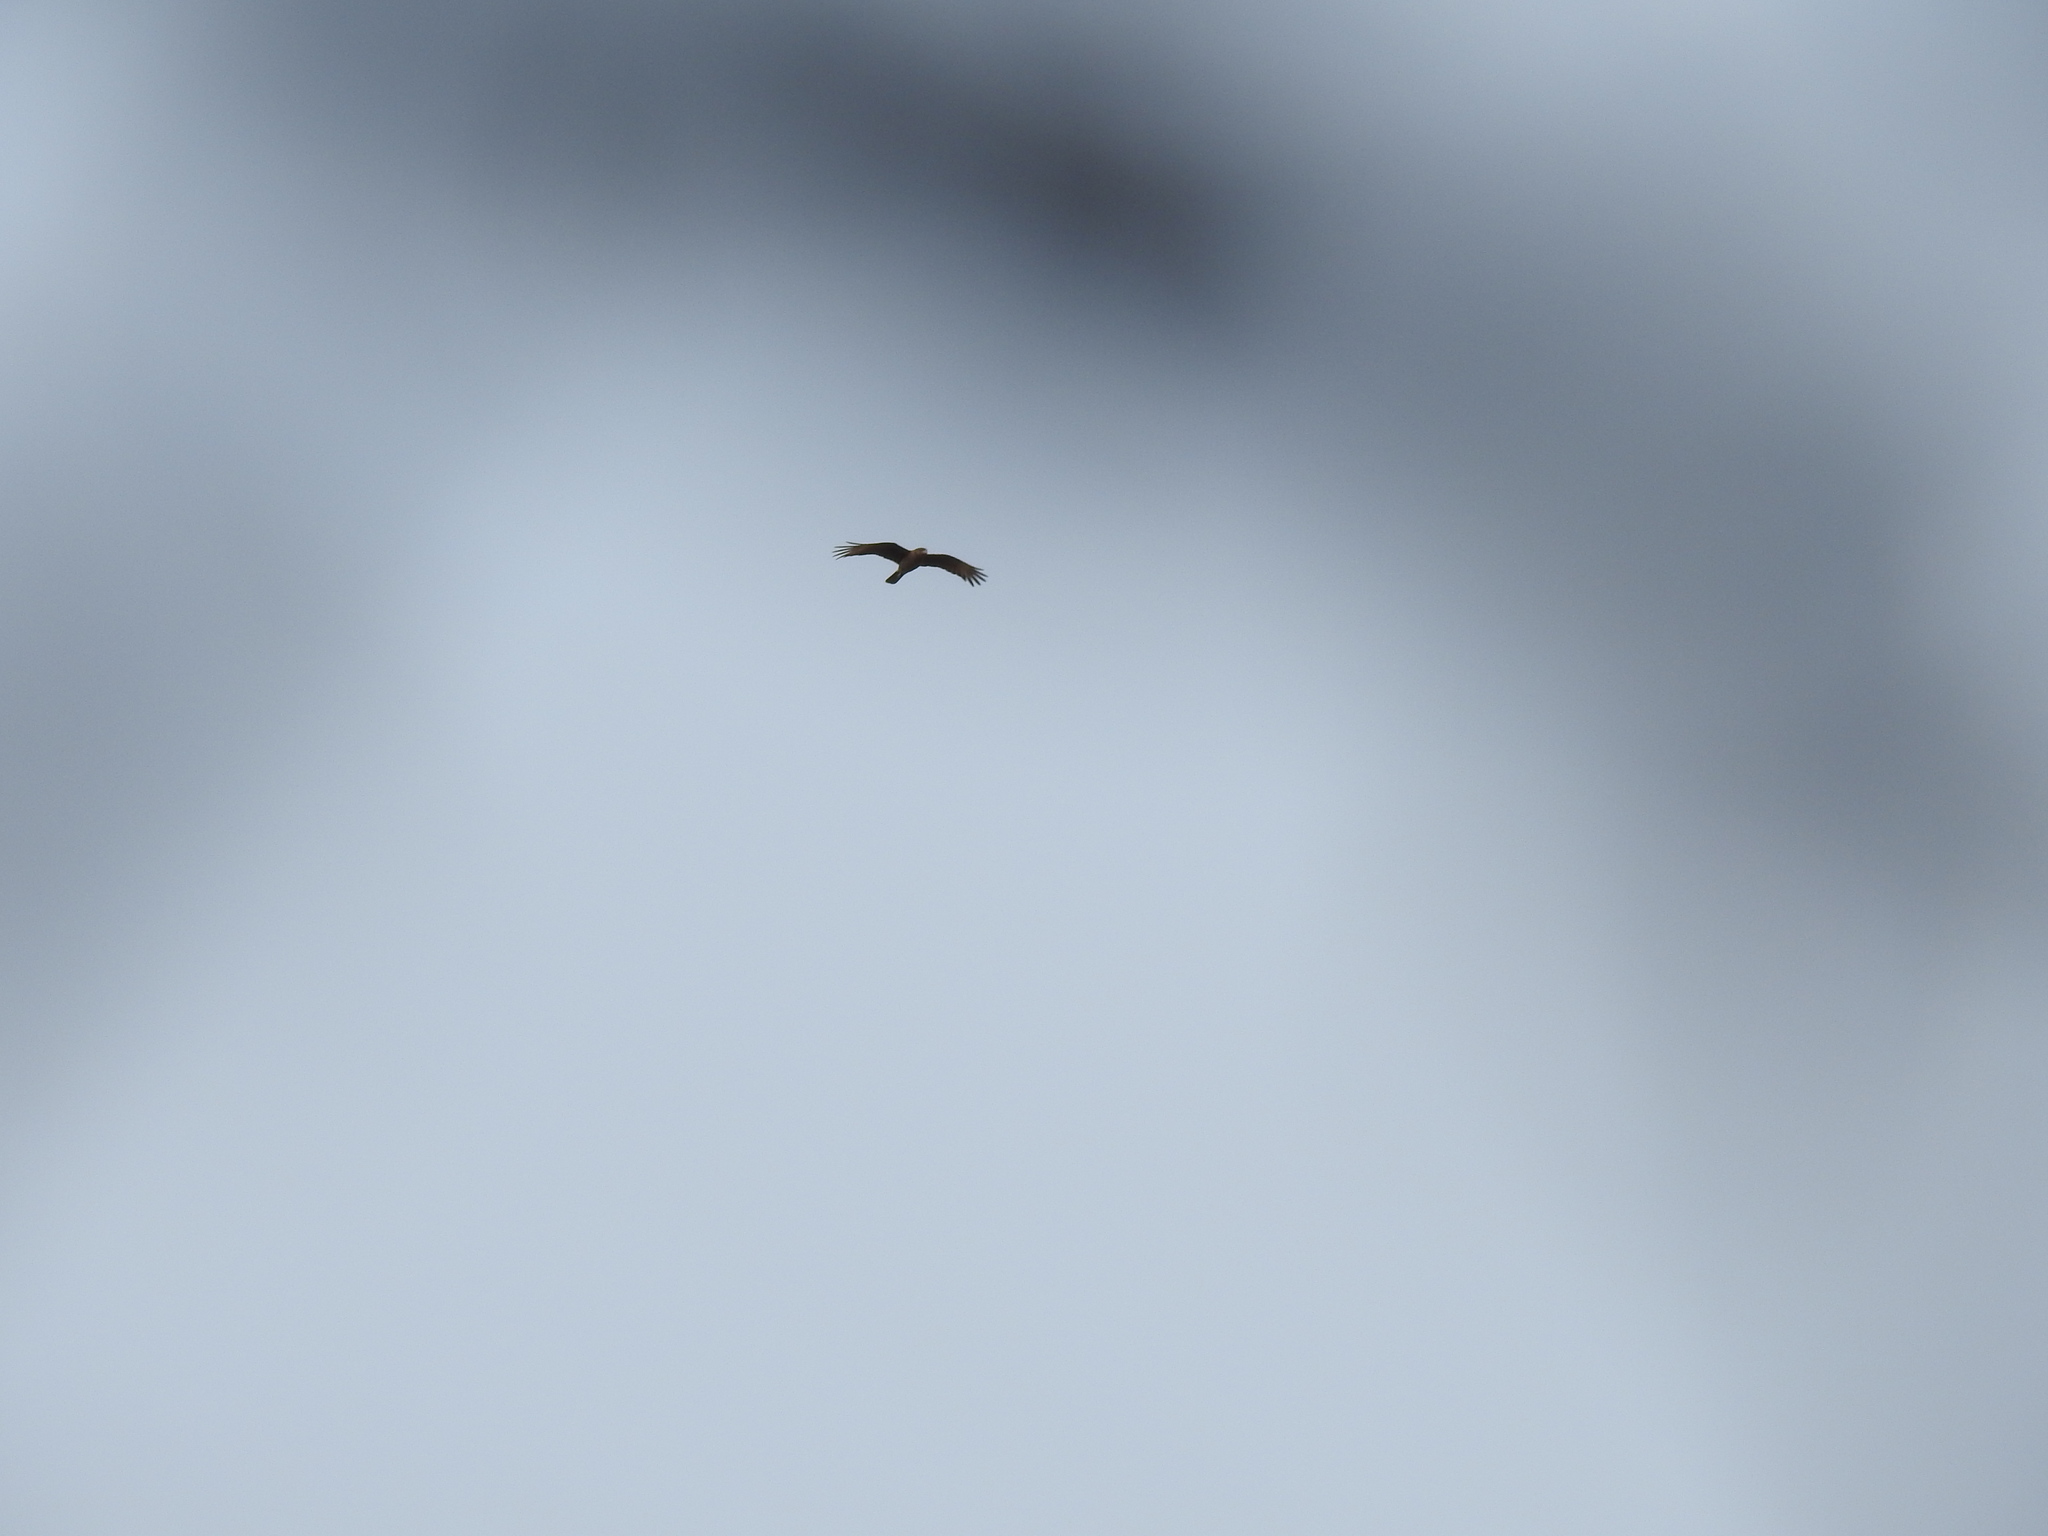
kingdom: Animalia
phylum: Chordata
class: Aves
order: Falconiformes
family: Falconidae
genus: Daptrius
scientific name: Daptrius
